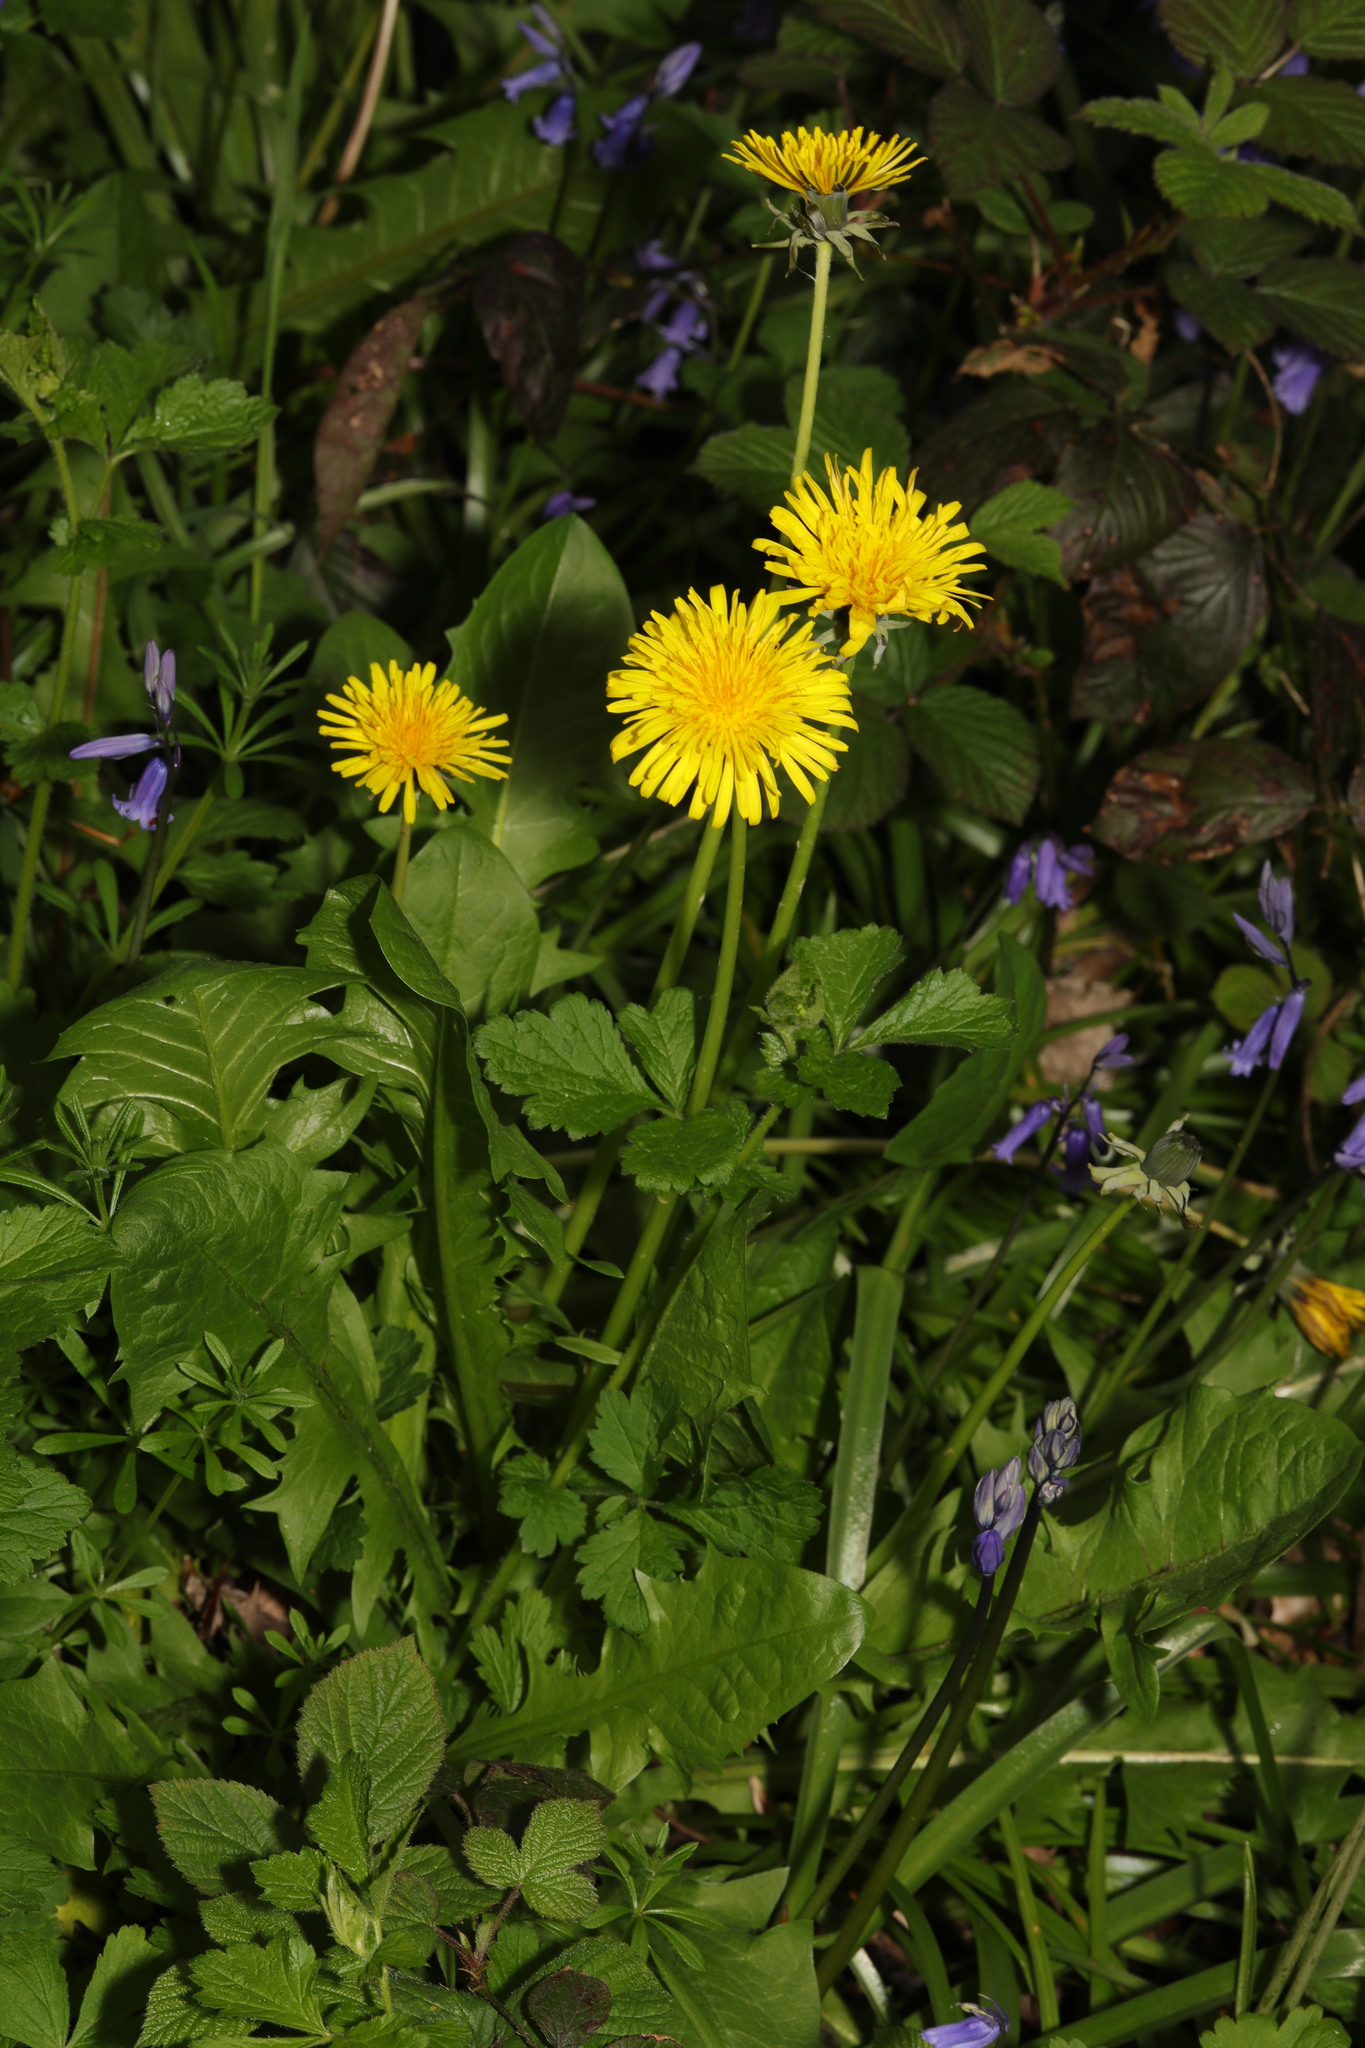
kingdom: Plantae
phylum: Tracheophyta
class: Magnoliopsida
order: Asterales
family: Asteraceae
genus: Taraxacum
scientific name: Taraxacum officinale
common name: Common dandelion
